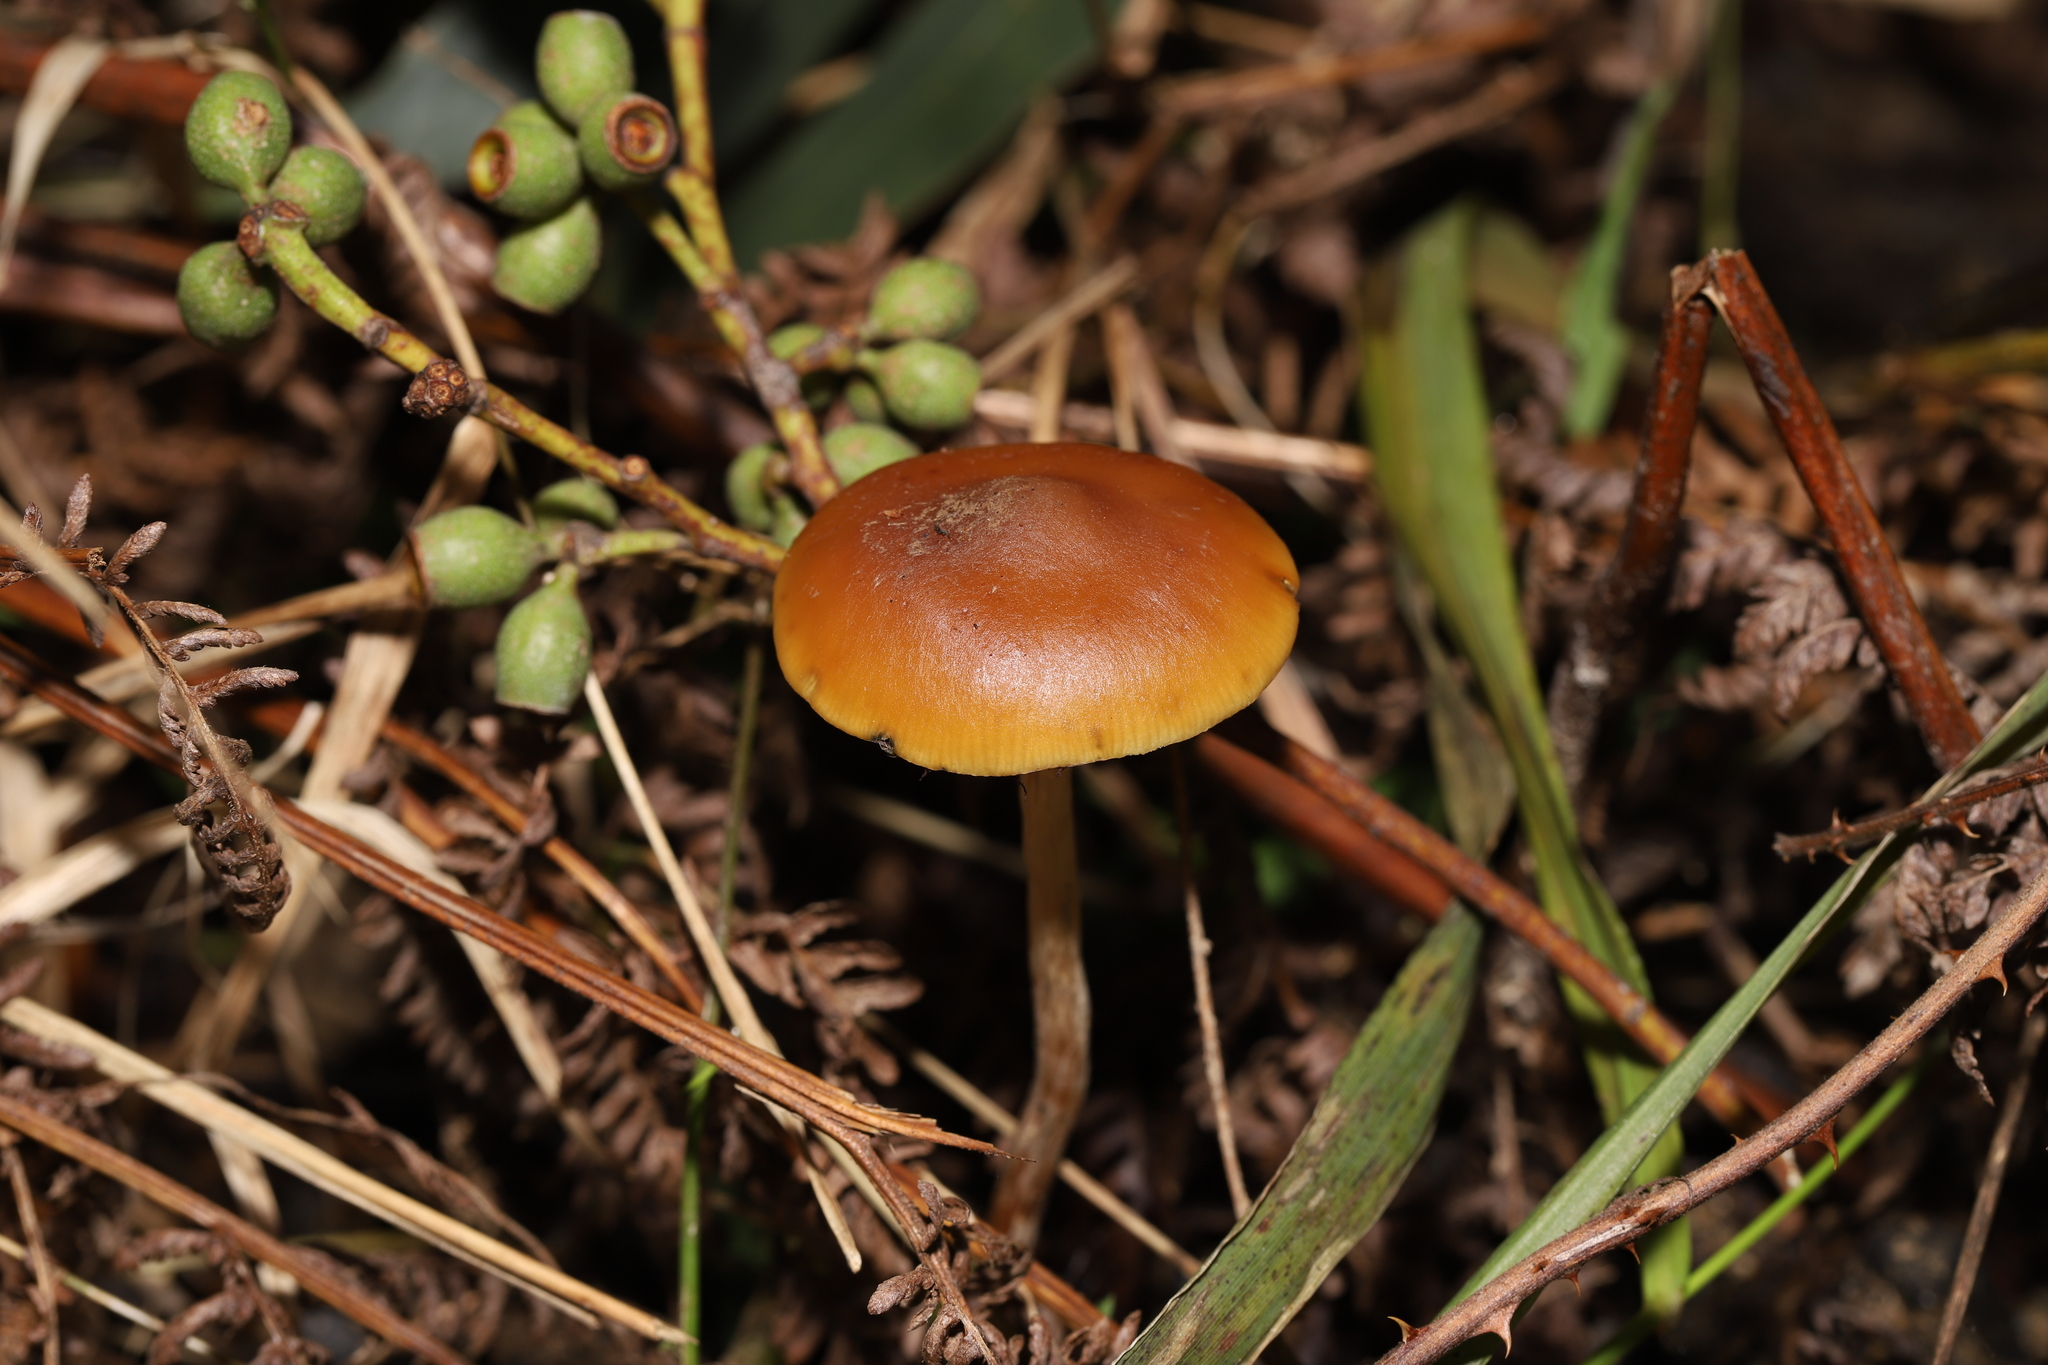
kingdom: Fungi
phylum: Basidiomycota
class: Agaricomycetes
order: Agaricales
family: Hymenogastraceae
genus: Psilocybe
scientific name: Psilocybe subaeruginosa
